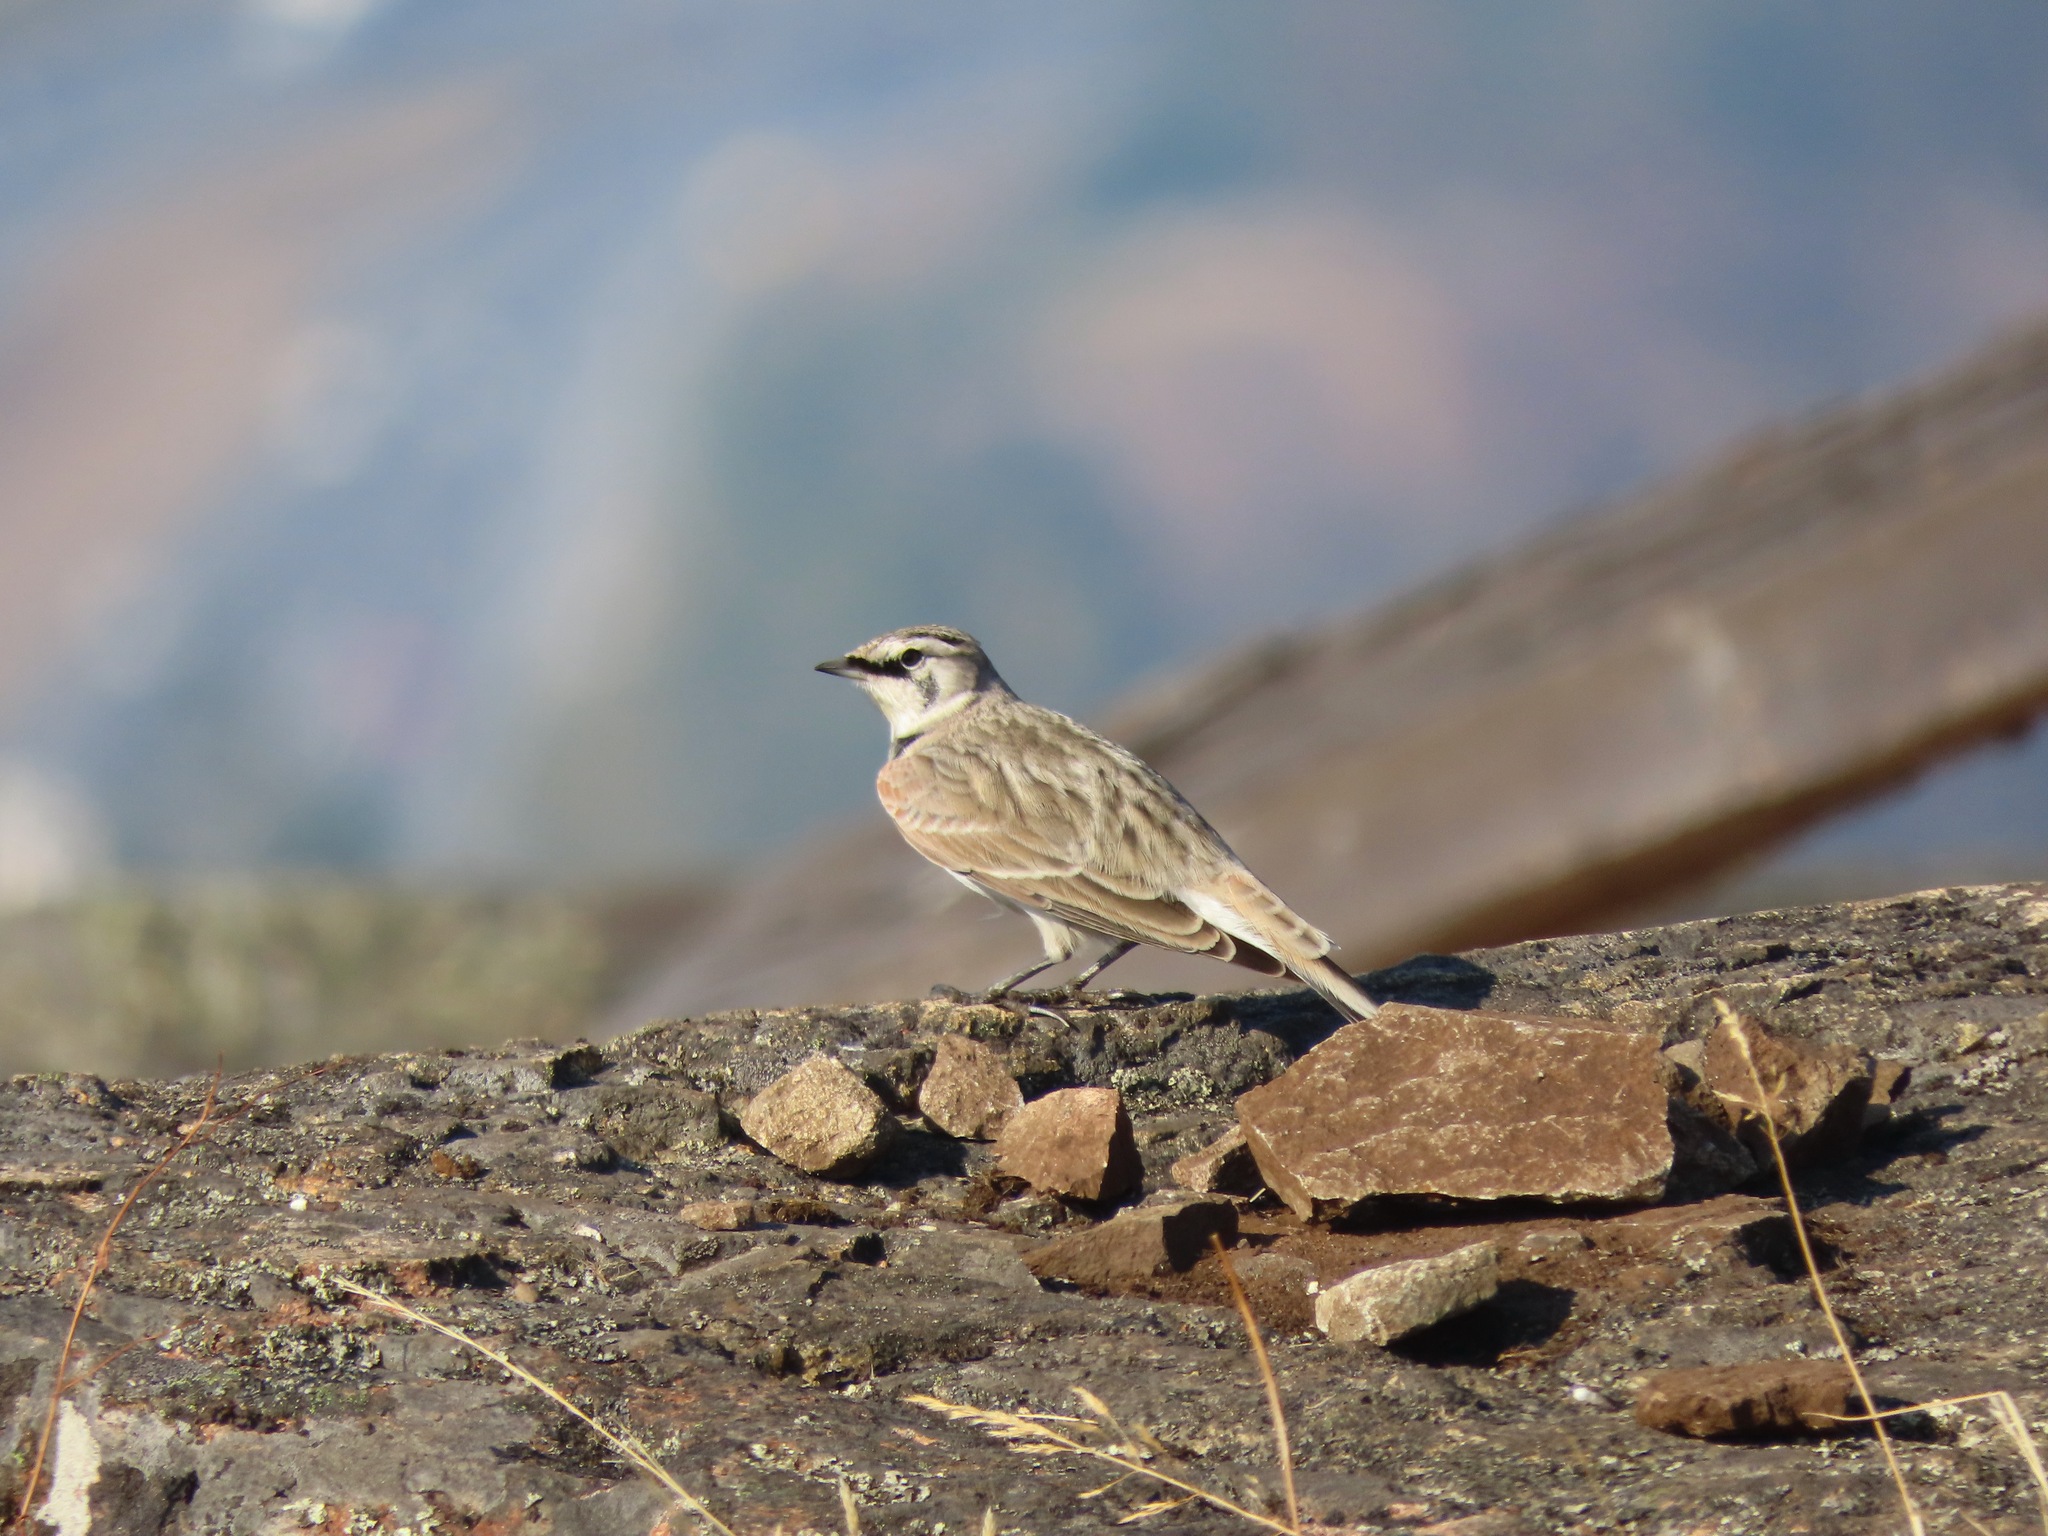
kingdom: Animalia
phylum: Chordata
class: Aves
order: Passeriformes
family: Alaudidae
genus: Eremophila
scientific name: Eremophila alpestris
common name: Horned lark
